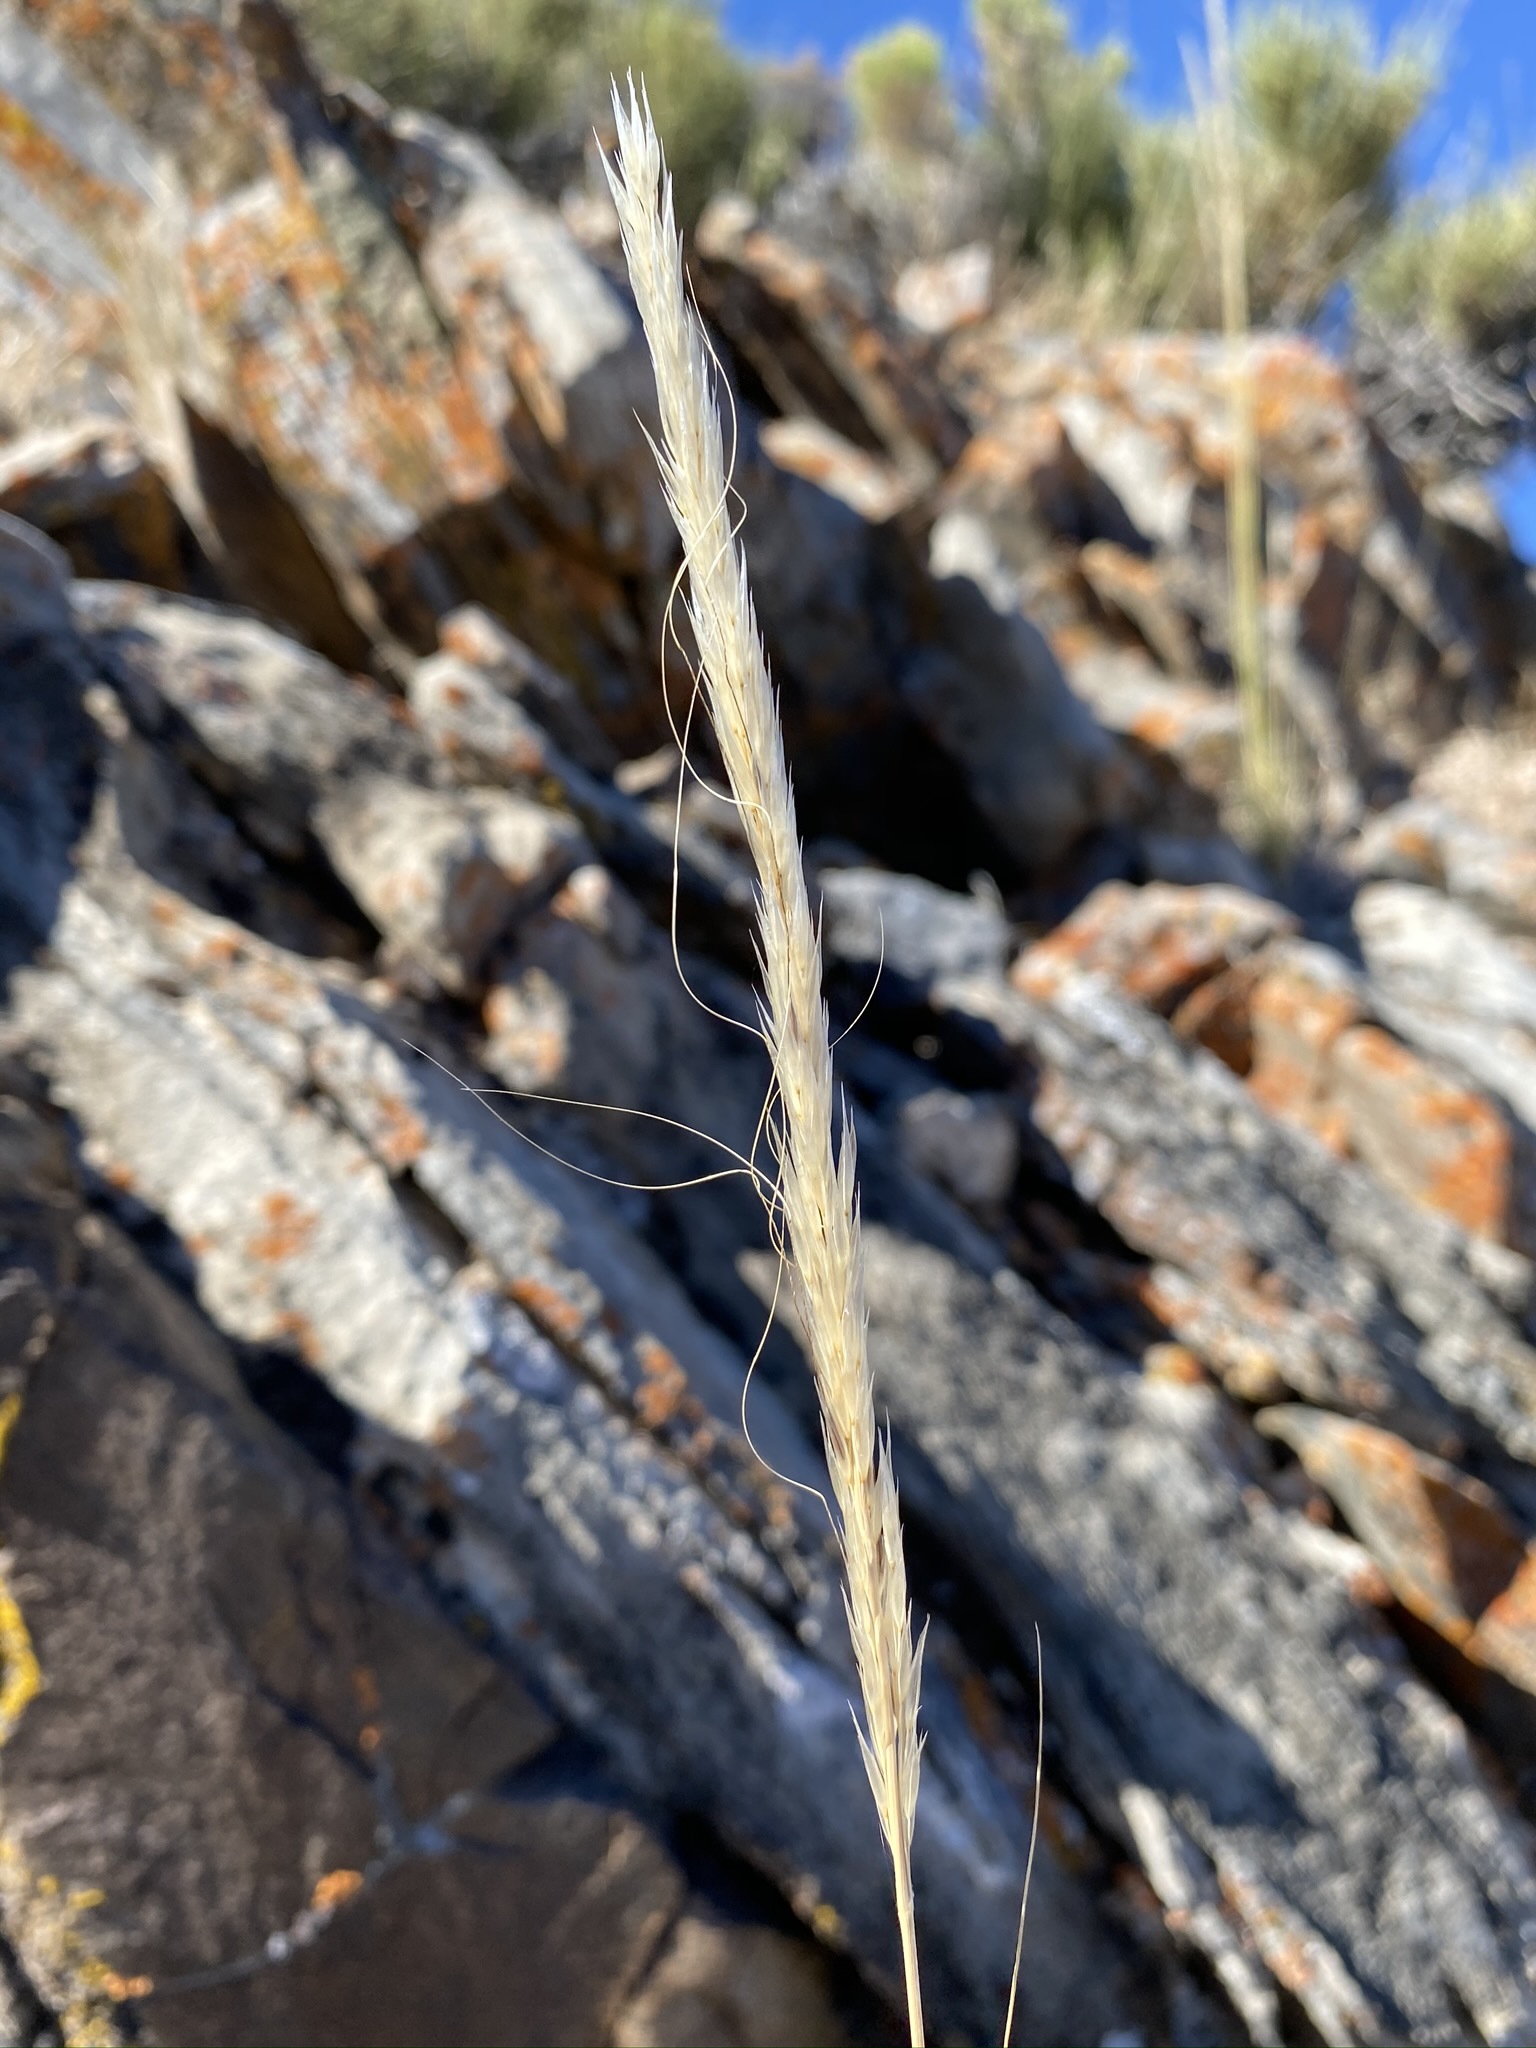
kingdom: Plantae
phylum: Tracheophyta
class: Liliopsida
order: Poales
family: Poaceae
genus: Eriocoma
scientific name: Eriocoma arida
